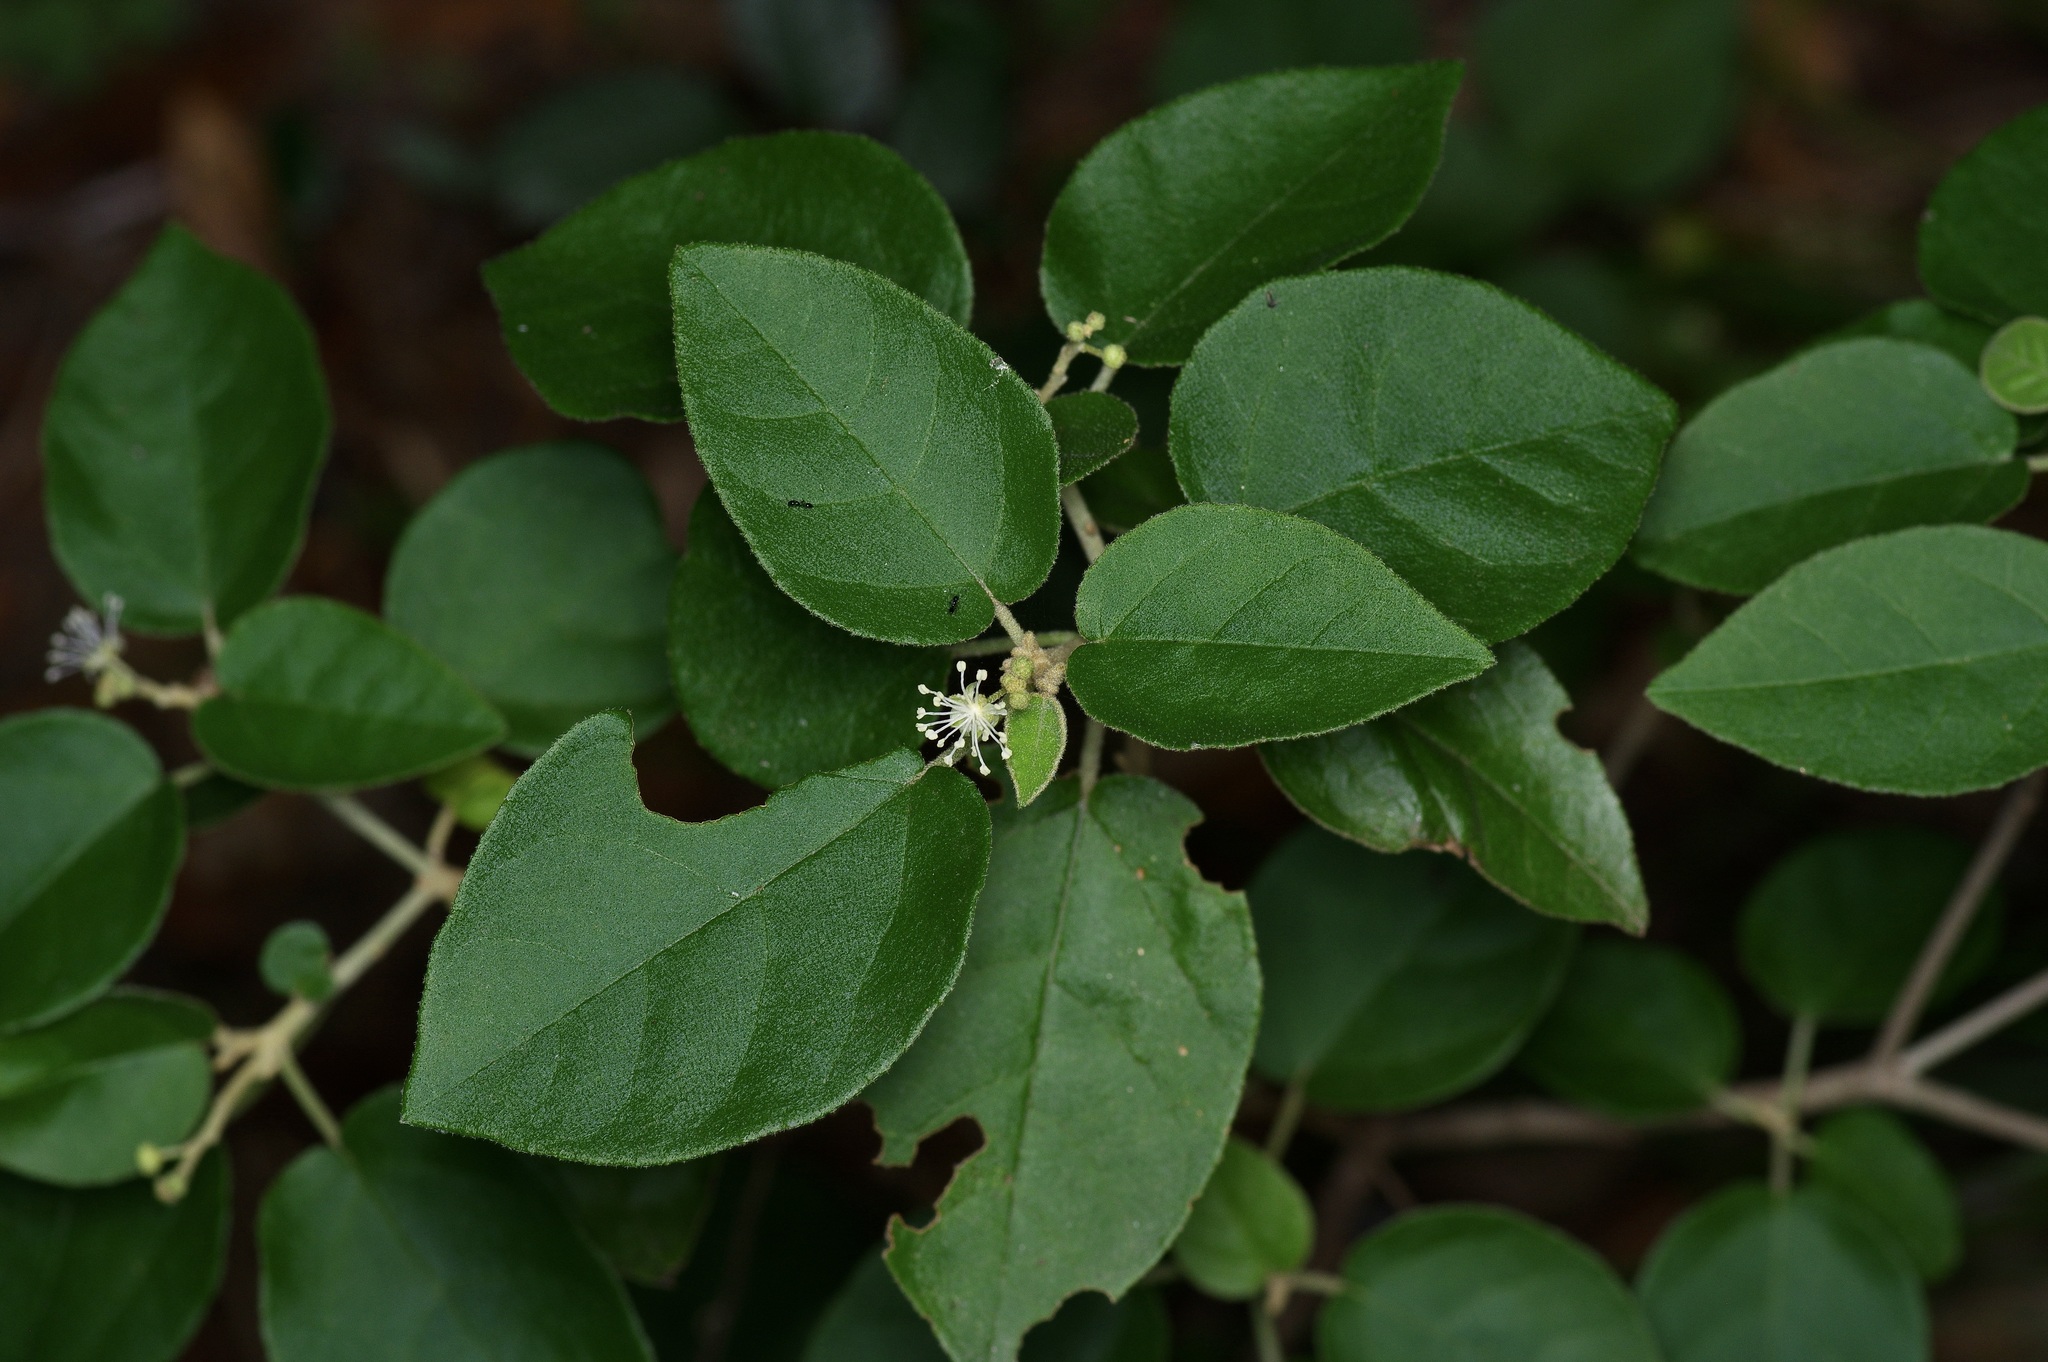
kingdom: Plantae
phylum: Tracheophyta
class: Magnoliopsida
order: Malpighiales
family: Euphorbiaceae
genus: Croton
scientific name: Croton fruticulosus
